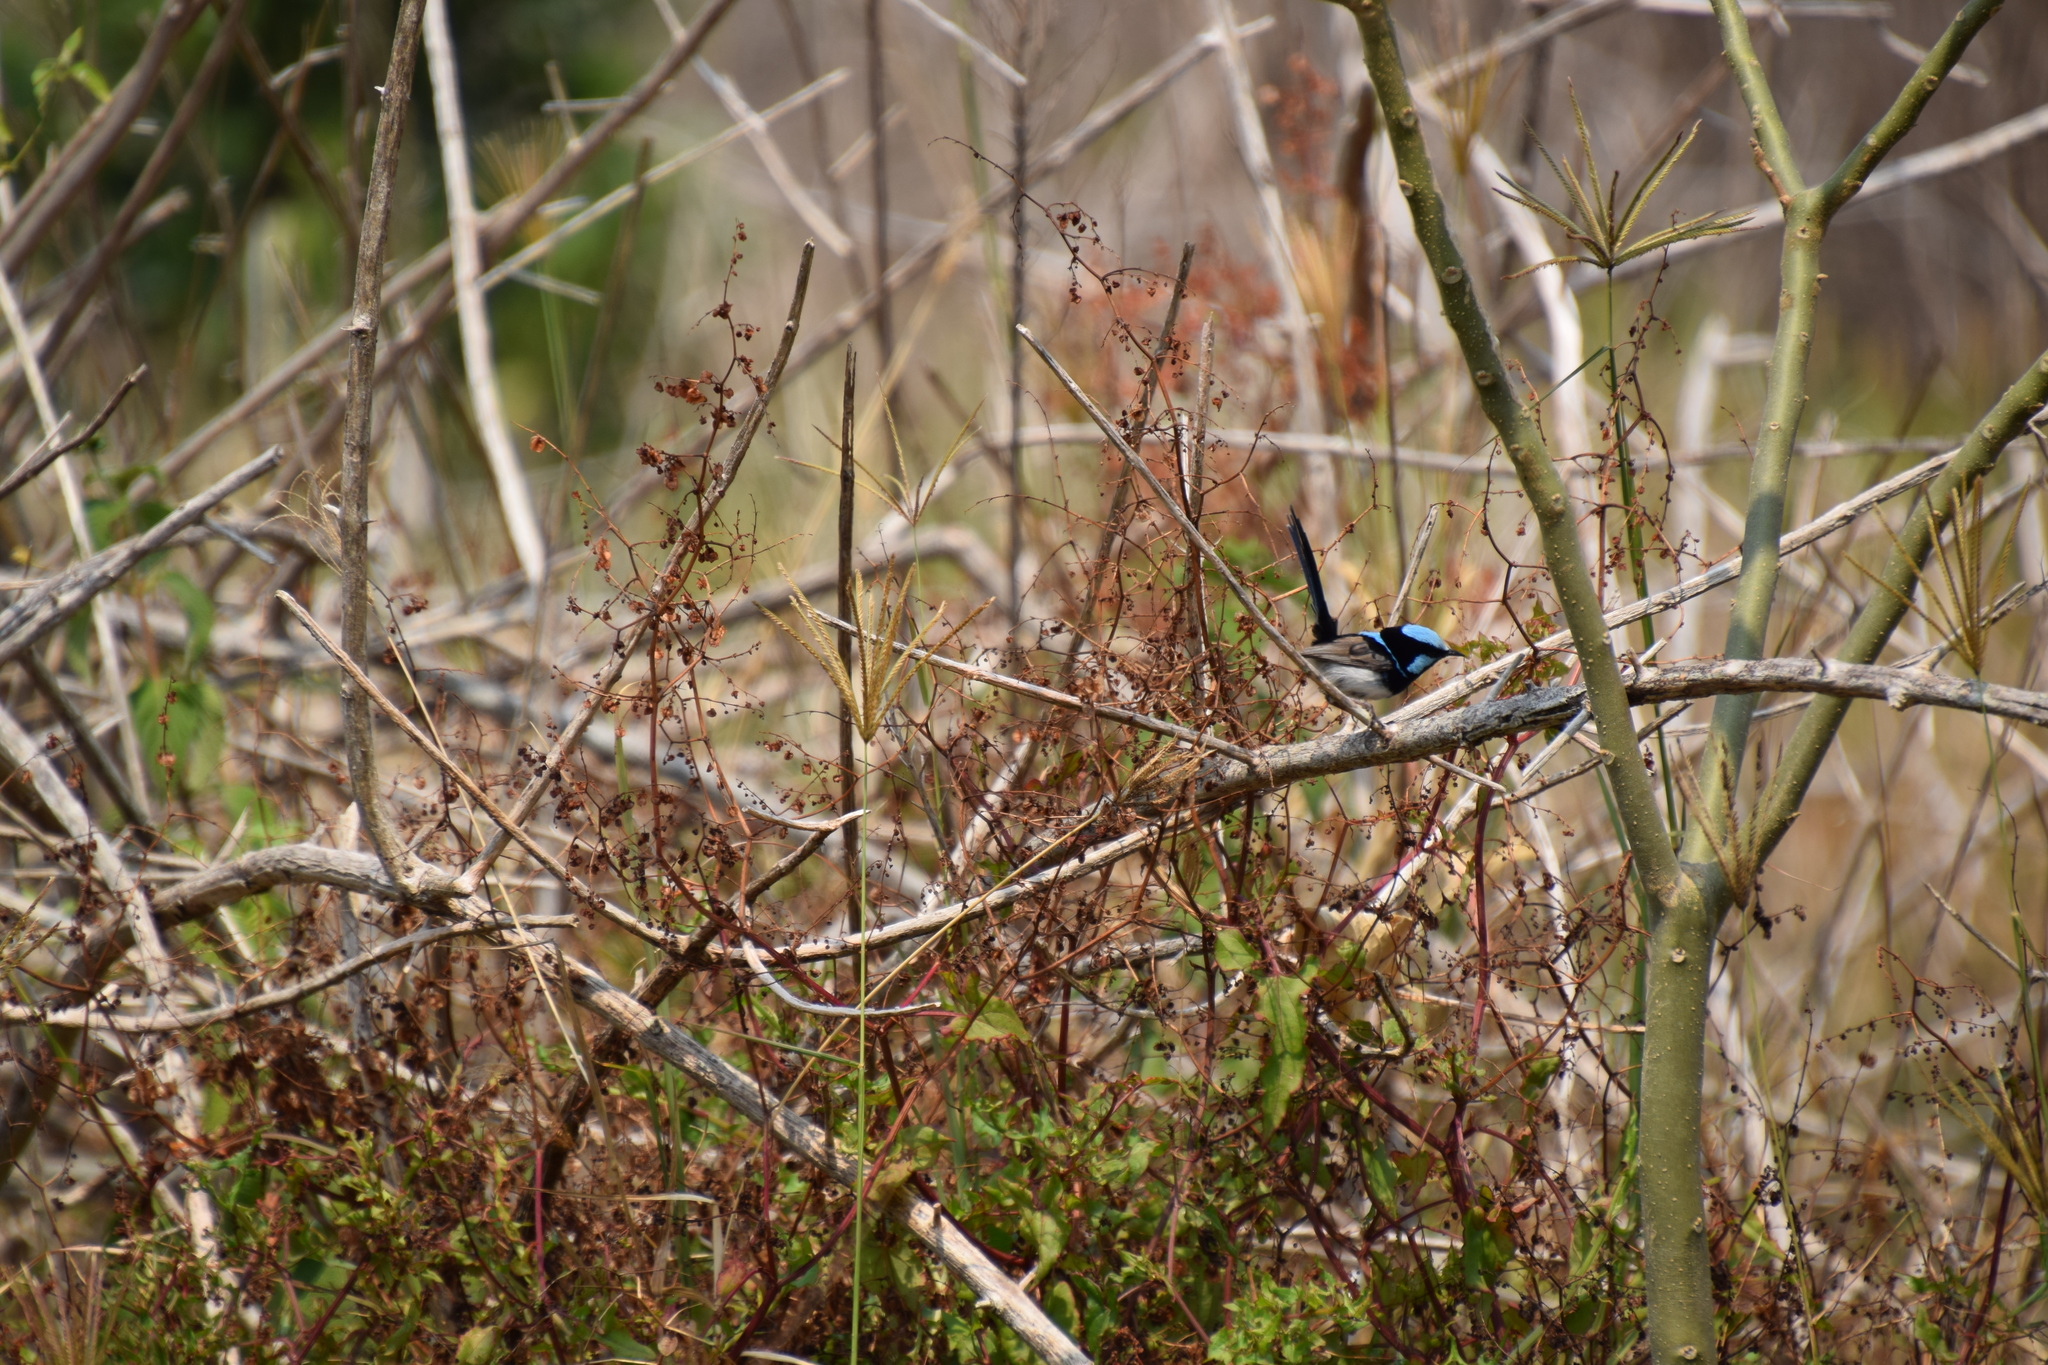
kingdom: Animalia
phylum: Chordata
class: Aves
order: Passeriformes
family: Maluridae
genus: Malurus
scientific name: Malurus cyaneus
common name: Superb fairywren
